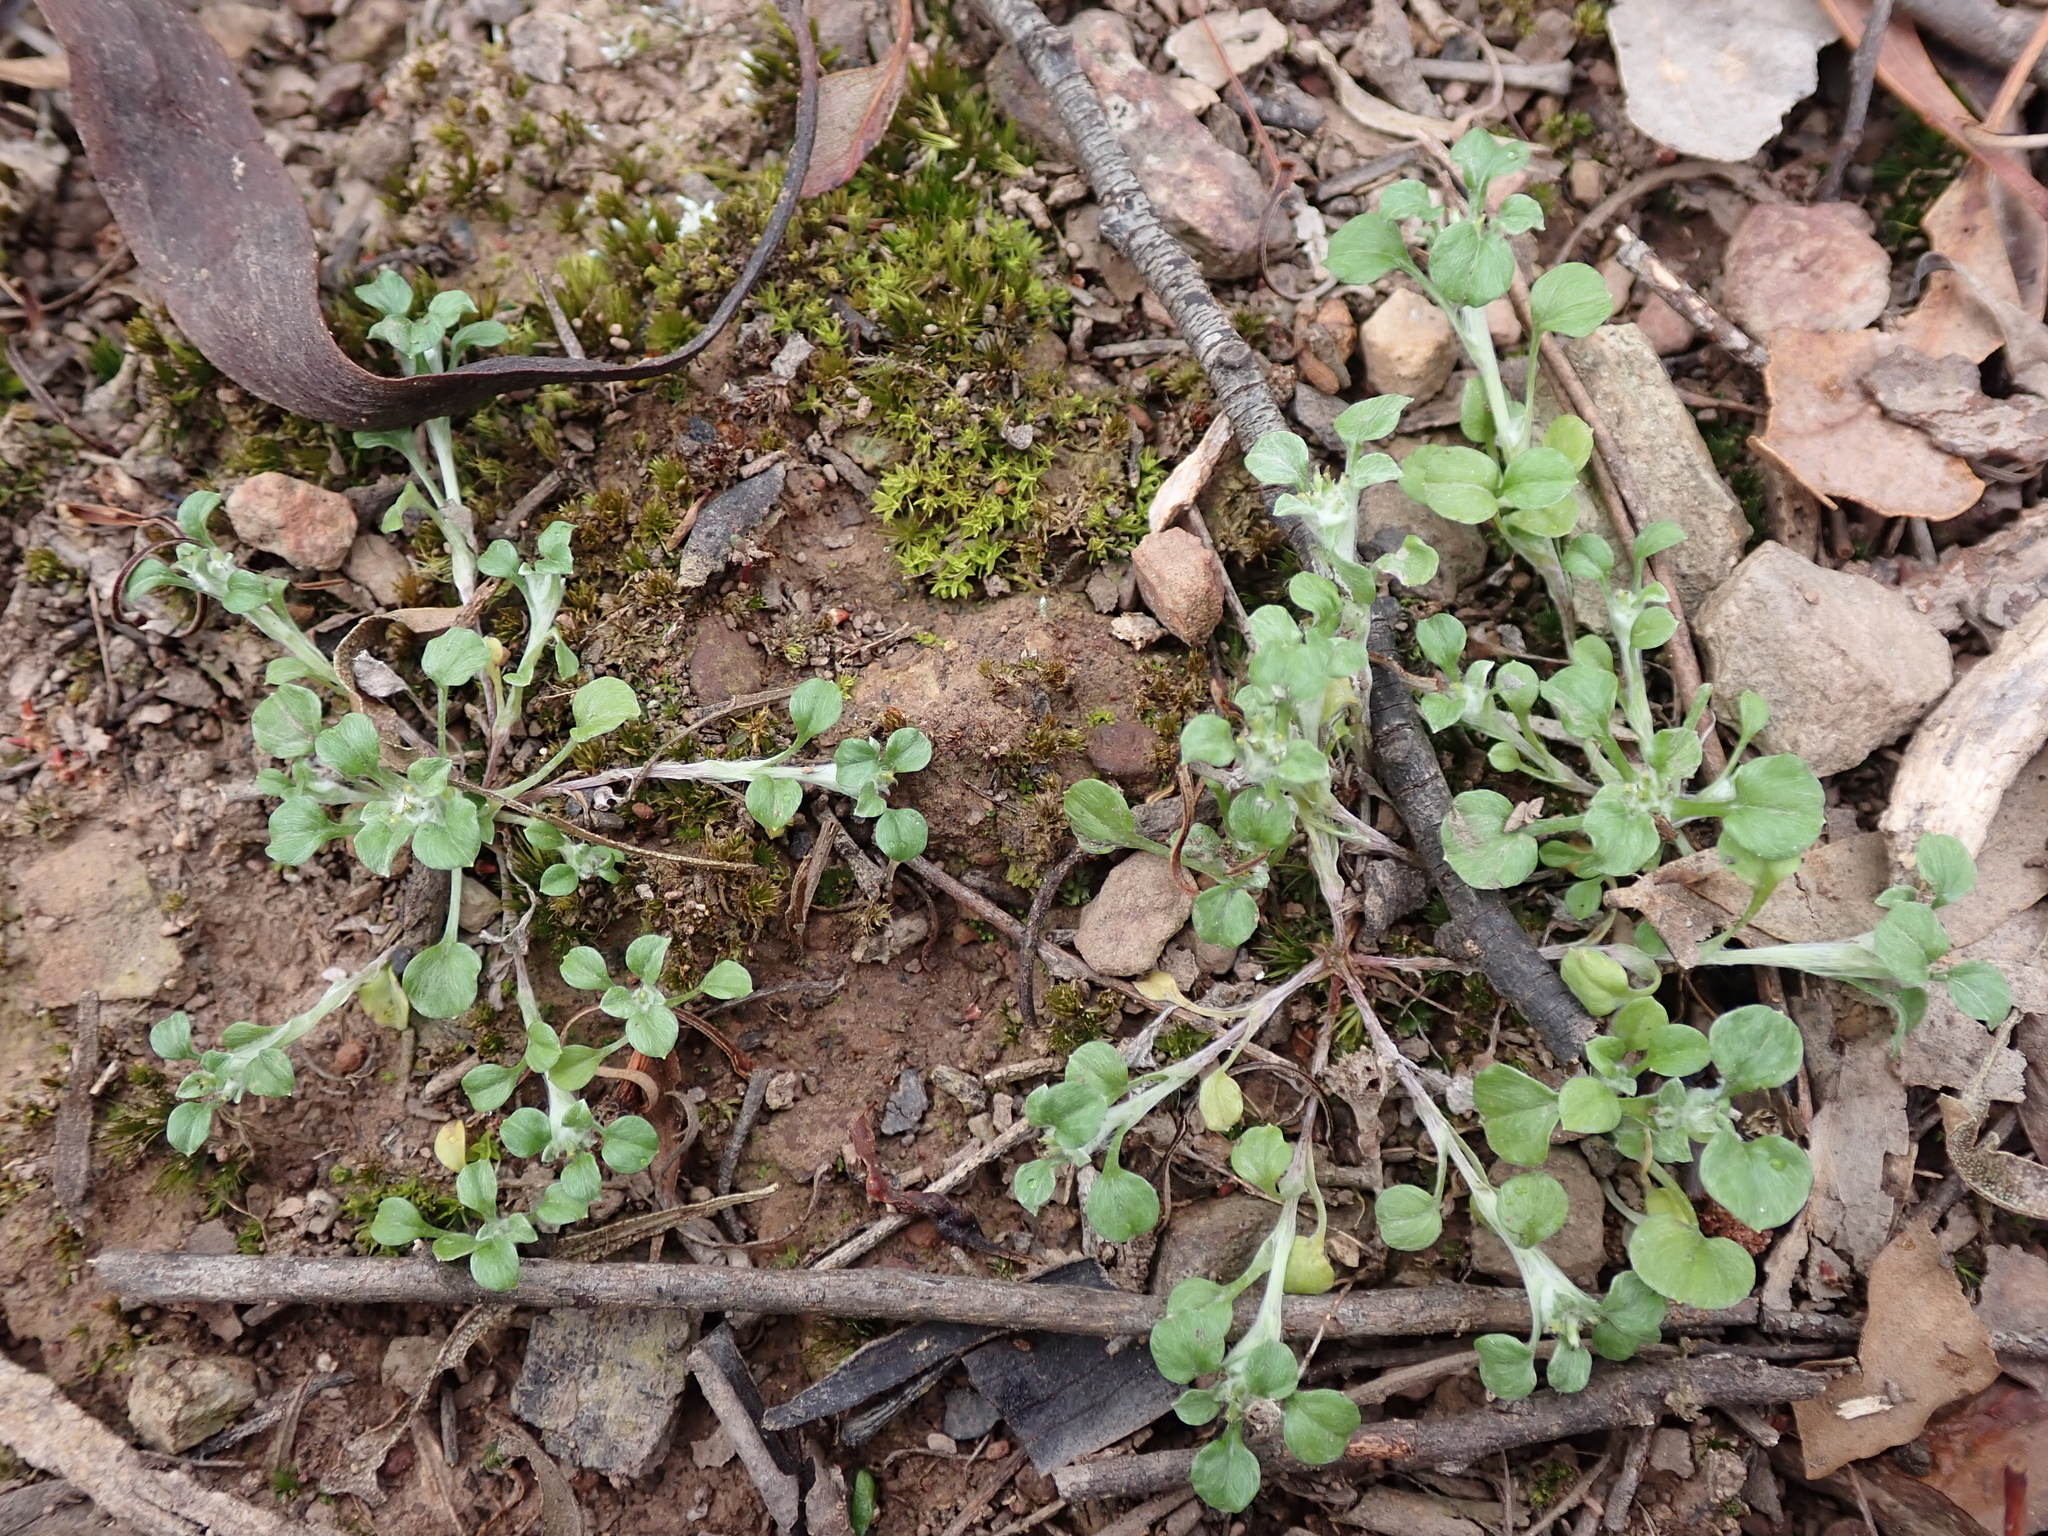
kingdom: Plantae
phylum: Tracheophyta
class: Magnoliopsida
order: Asterales
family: Asteraceae
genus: Stuartina
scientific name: Stuartina muelleri
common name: Spoon-leaved cudweed
